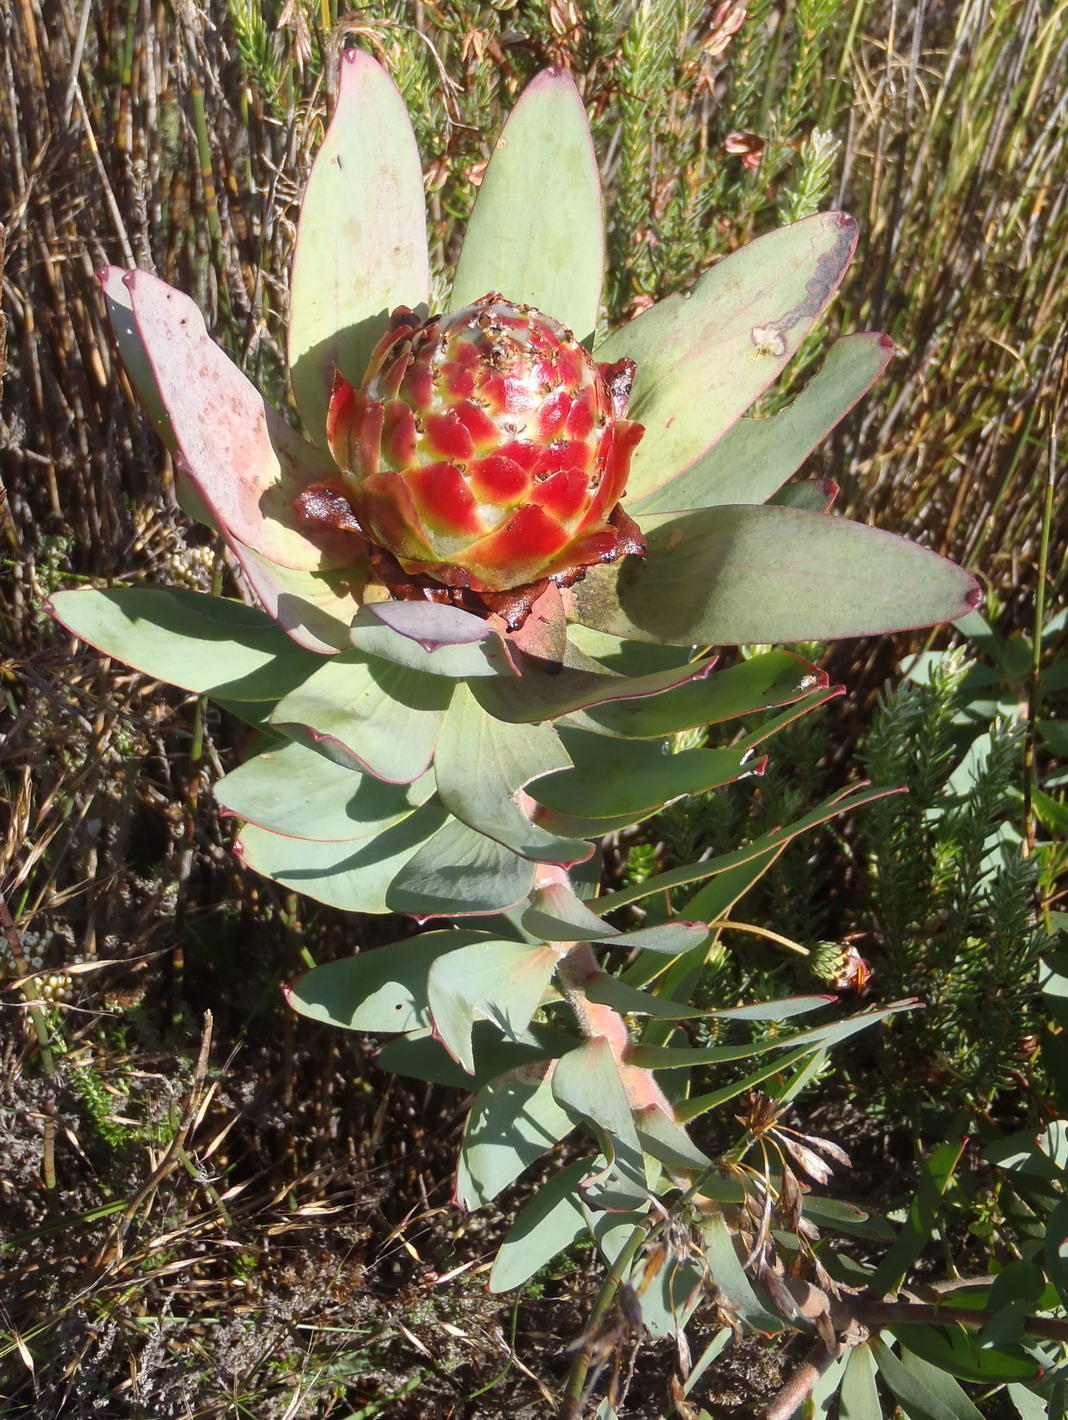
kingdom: Plantae
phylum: Tracheophyta
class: Magnoliopsida
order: Proteales
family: Proteaceae
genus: Leucadendron
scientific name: Leucadendron tinctum
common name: Spicy conebush
